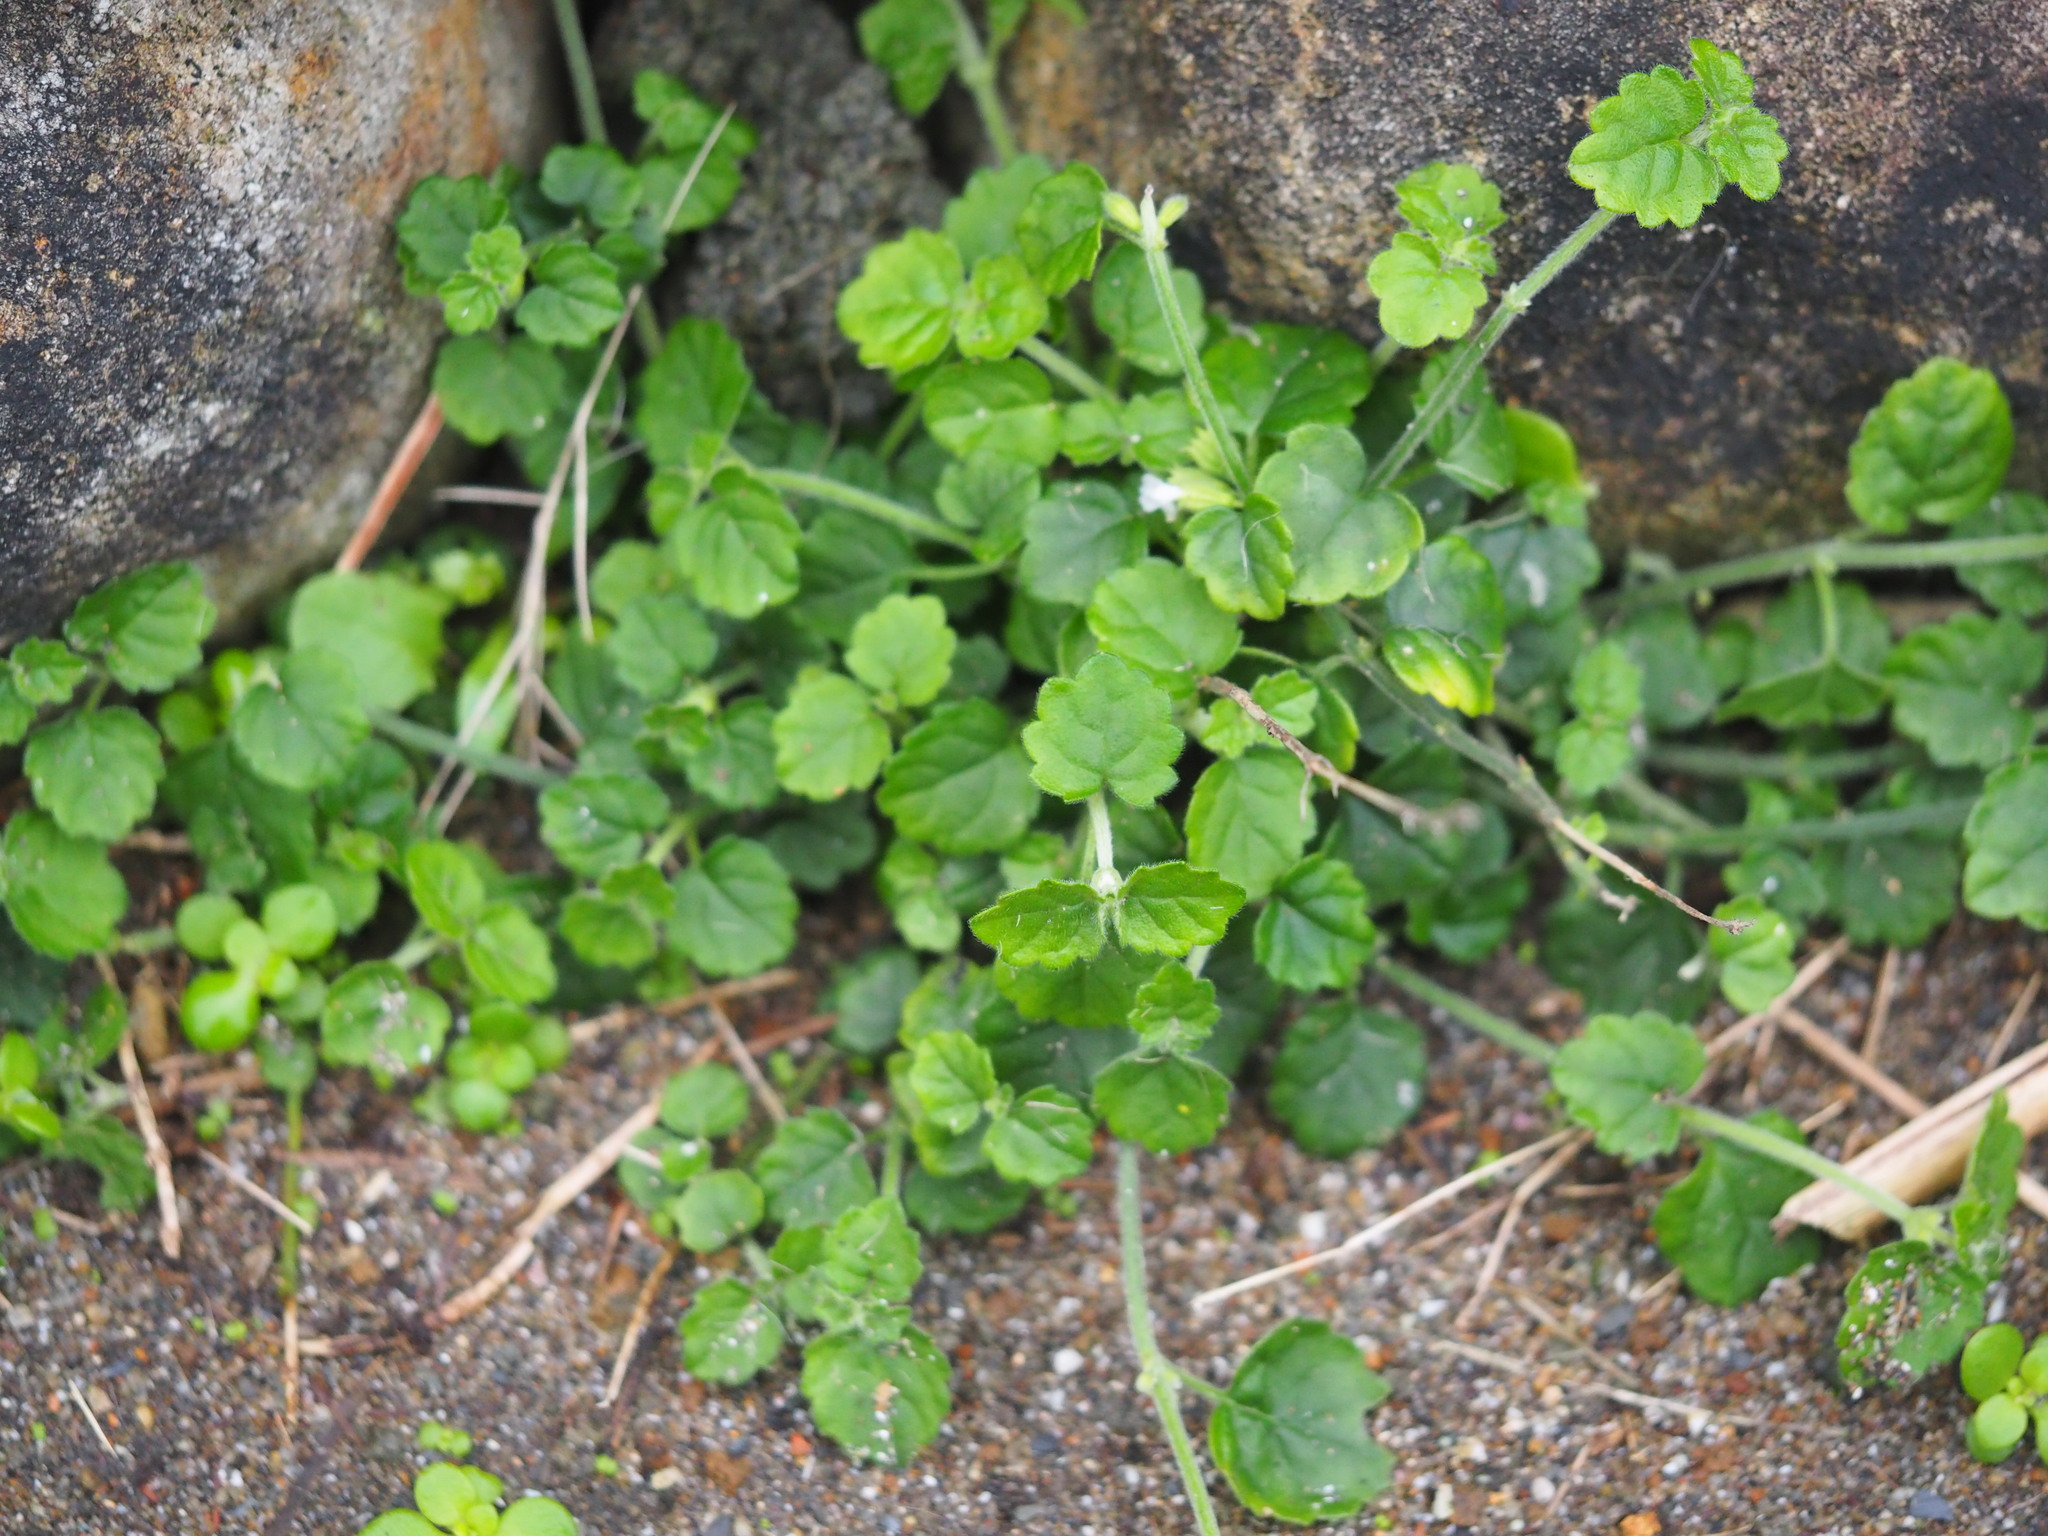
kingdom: Plantae
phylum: Tracheophyta
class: Magnoliopsida
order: Lamiales
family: Lamiaceae
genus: Leucas
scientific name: Leucas chinensis
